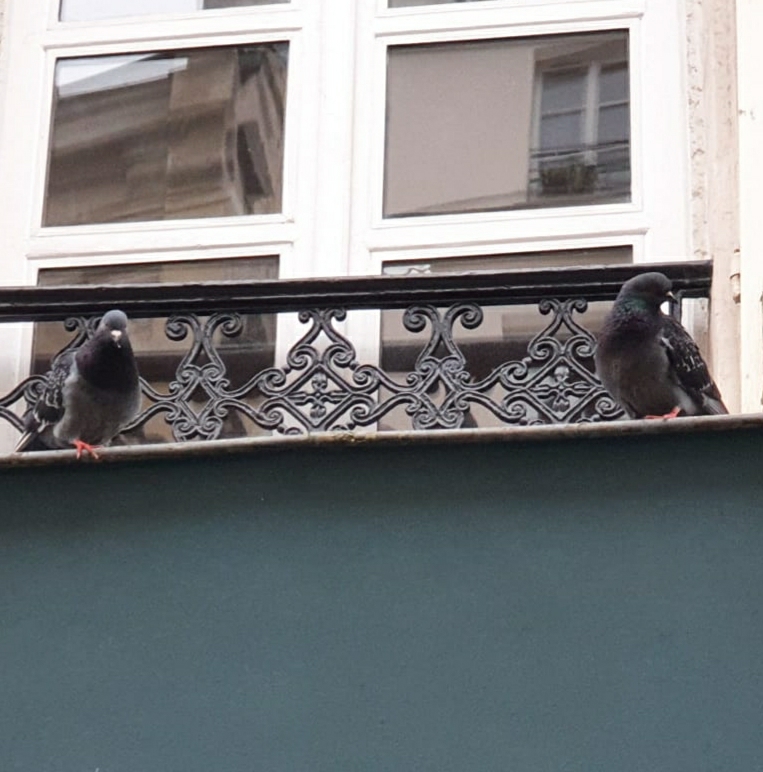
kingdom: Animalia
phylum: Chordata
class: Aves
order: Columbiformes
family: Columbidae
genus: Columba
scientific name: Columba livia
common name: Rock pigeon
